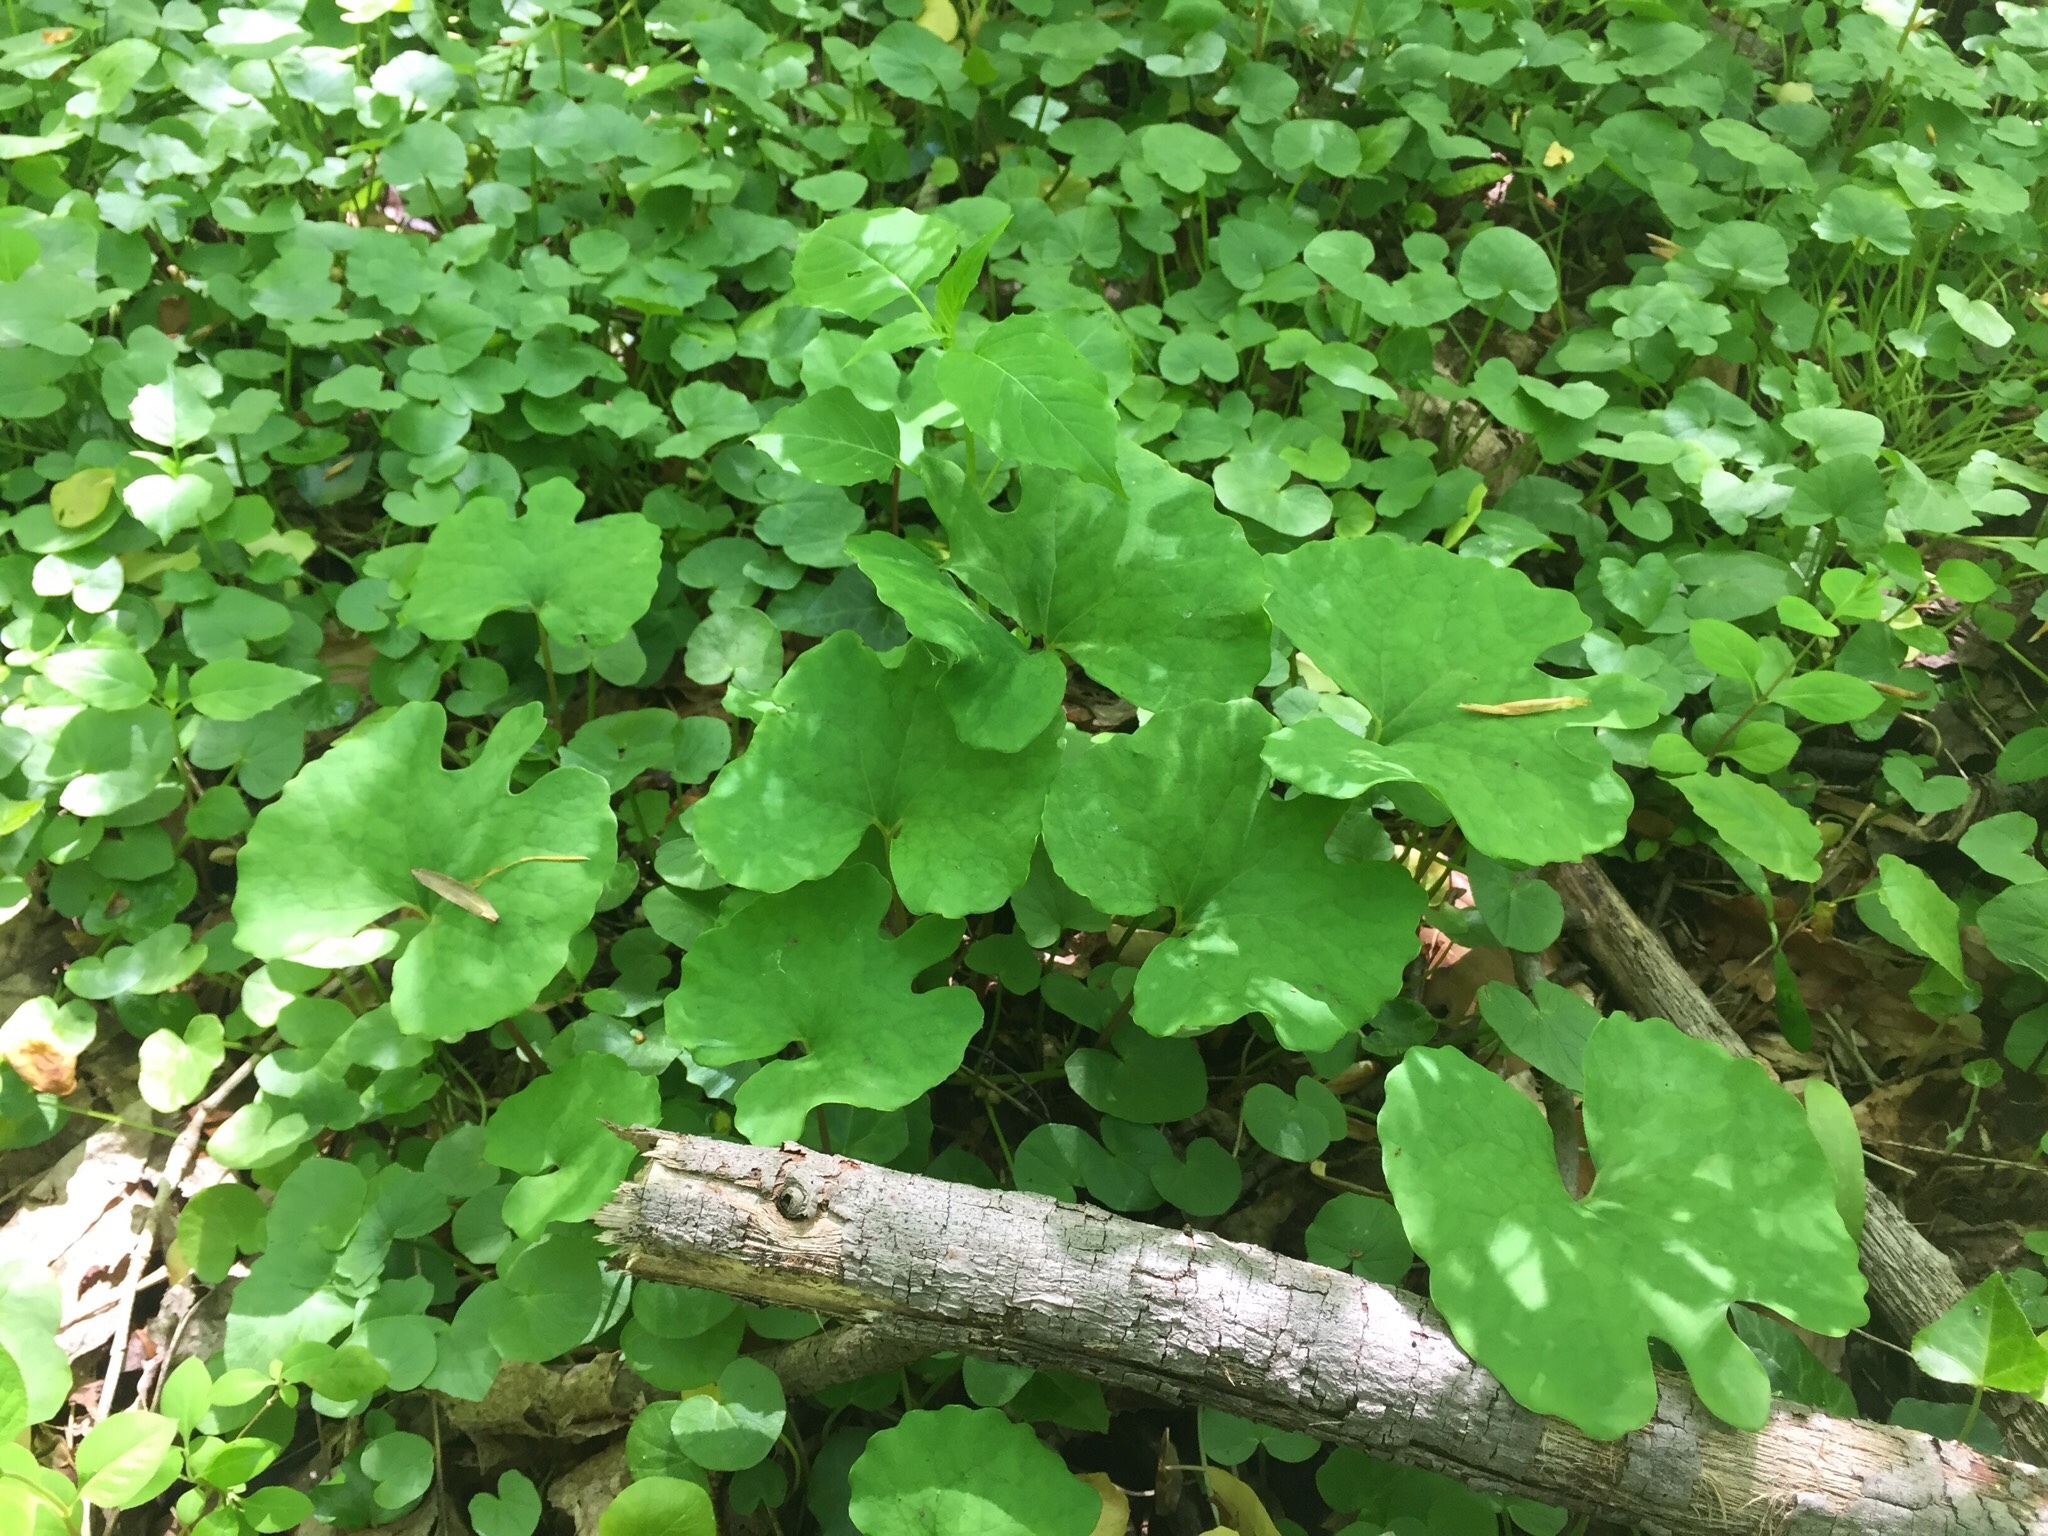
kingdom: Plantae
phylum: Tracheophyta
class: Magnoliopsida
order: Ranunculales
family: Papaveraceae
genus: Sanguinaria
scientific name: Sanguinaria canadensis
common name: Bloodroot
